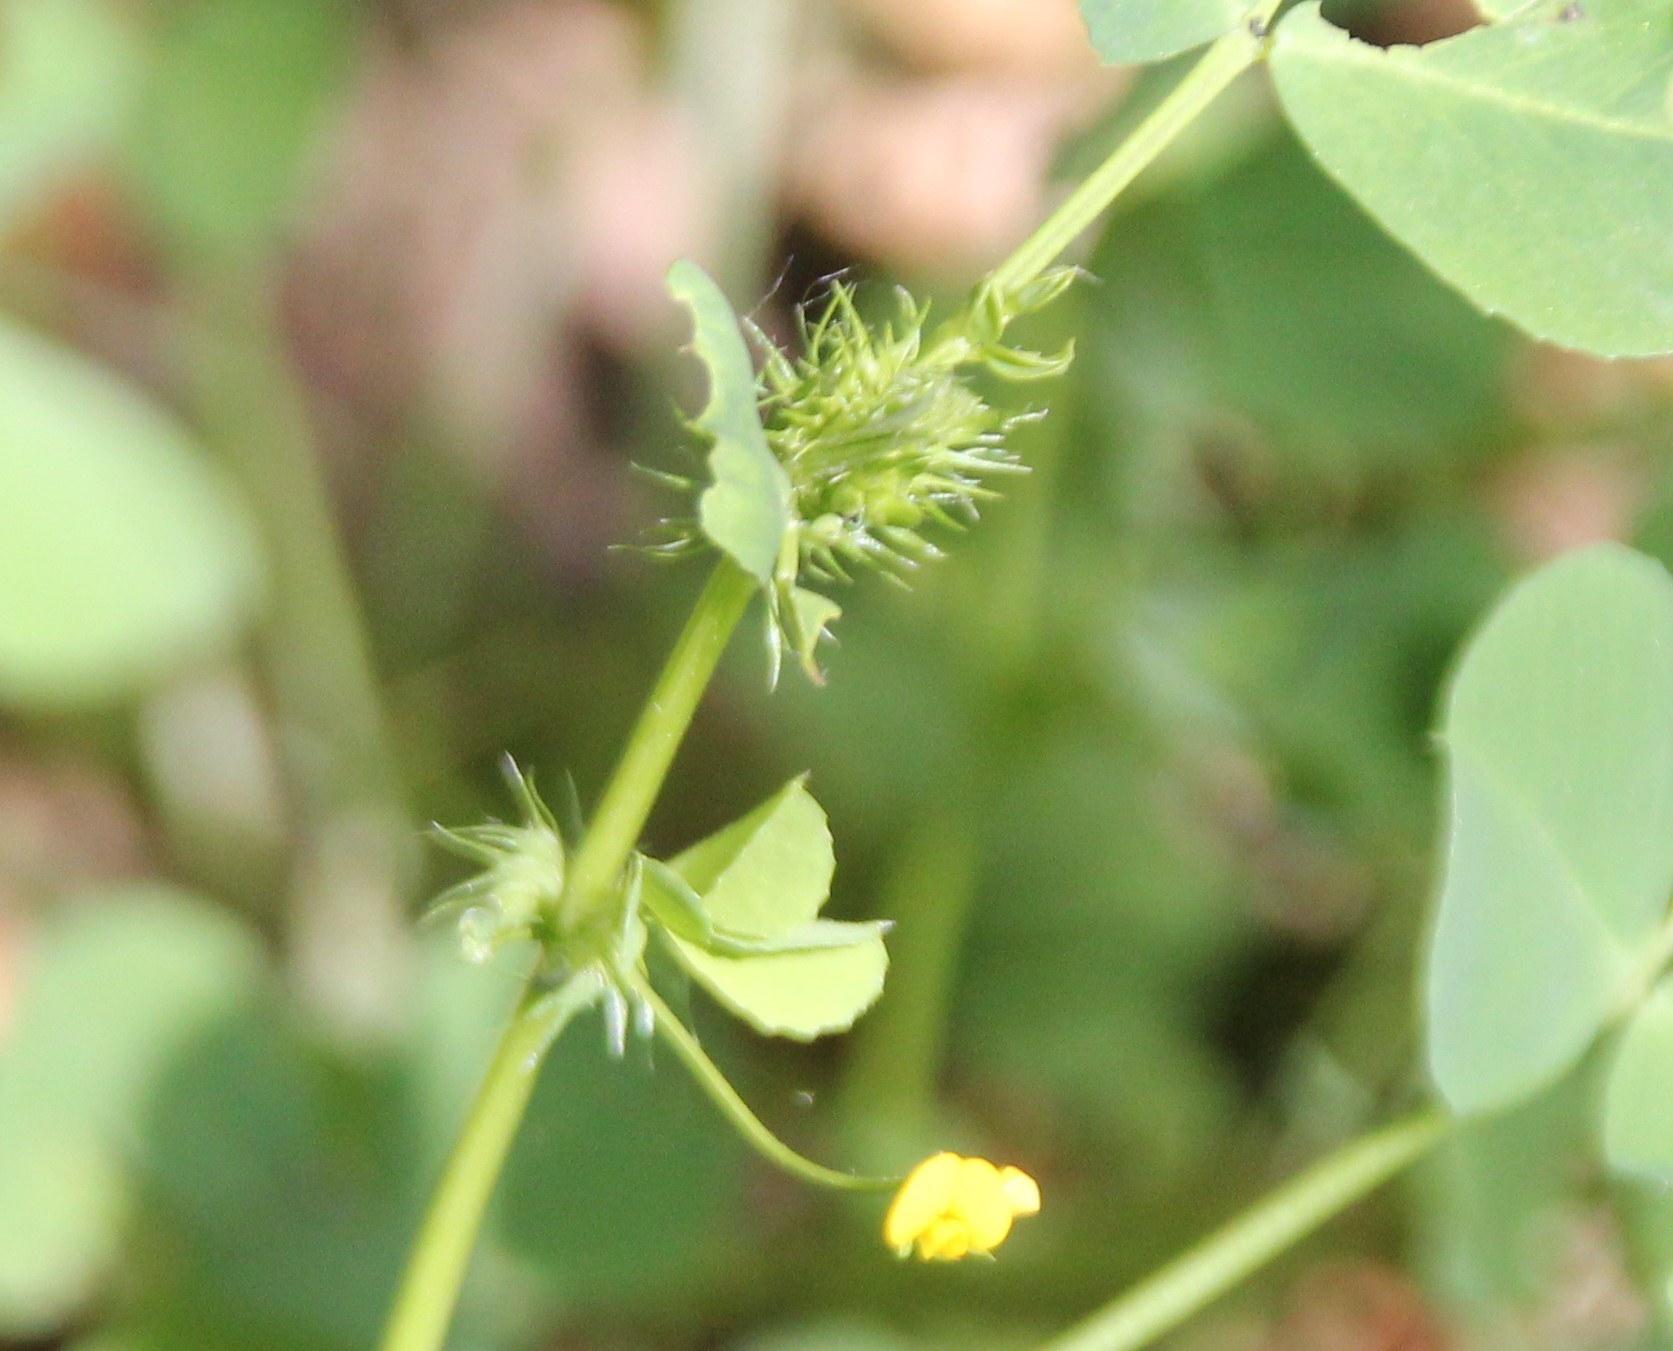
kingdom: Plantae
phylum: Tracheophyta
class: Magnoliopsida
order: Fabales
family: Fabaceae
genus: Medicago
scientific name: Medicago polymorpha
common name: Burclover
